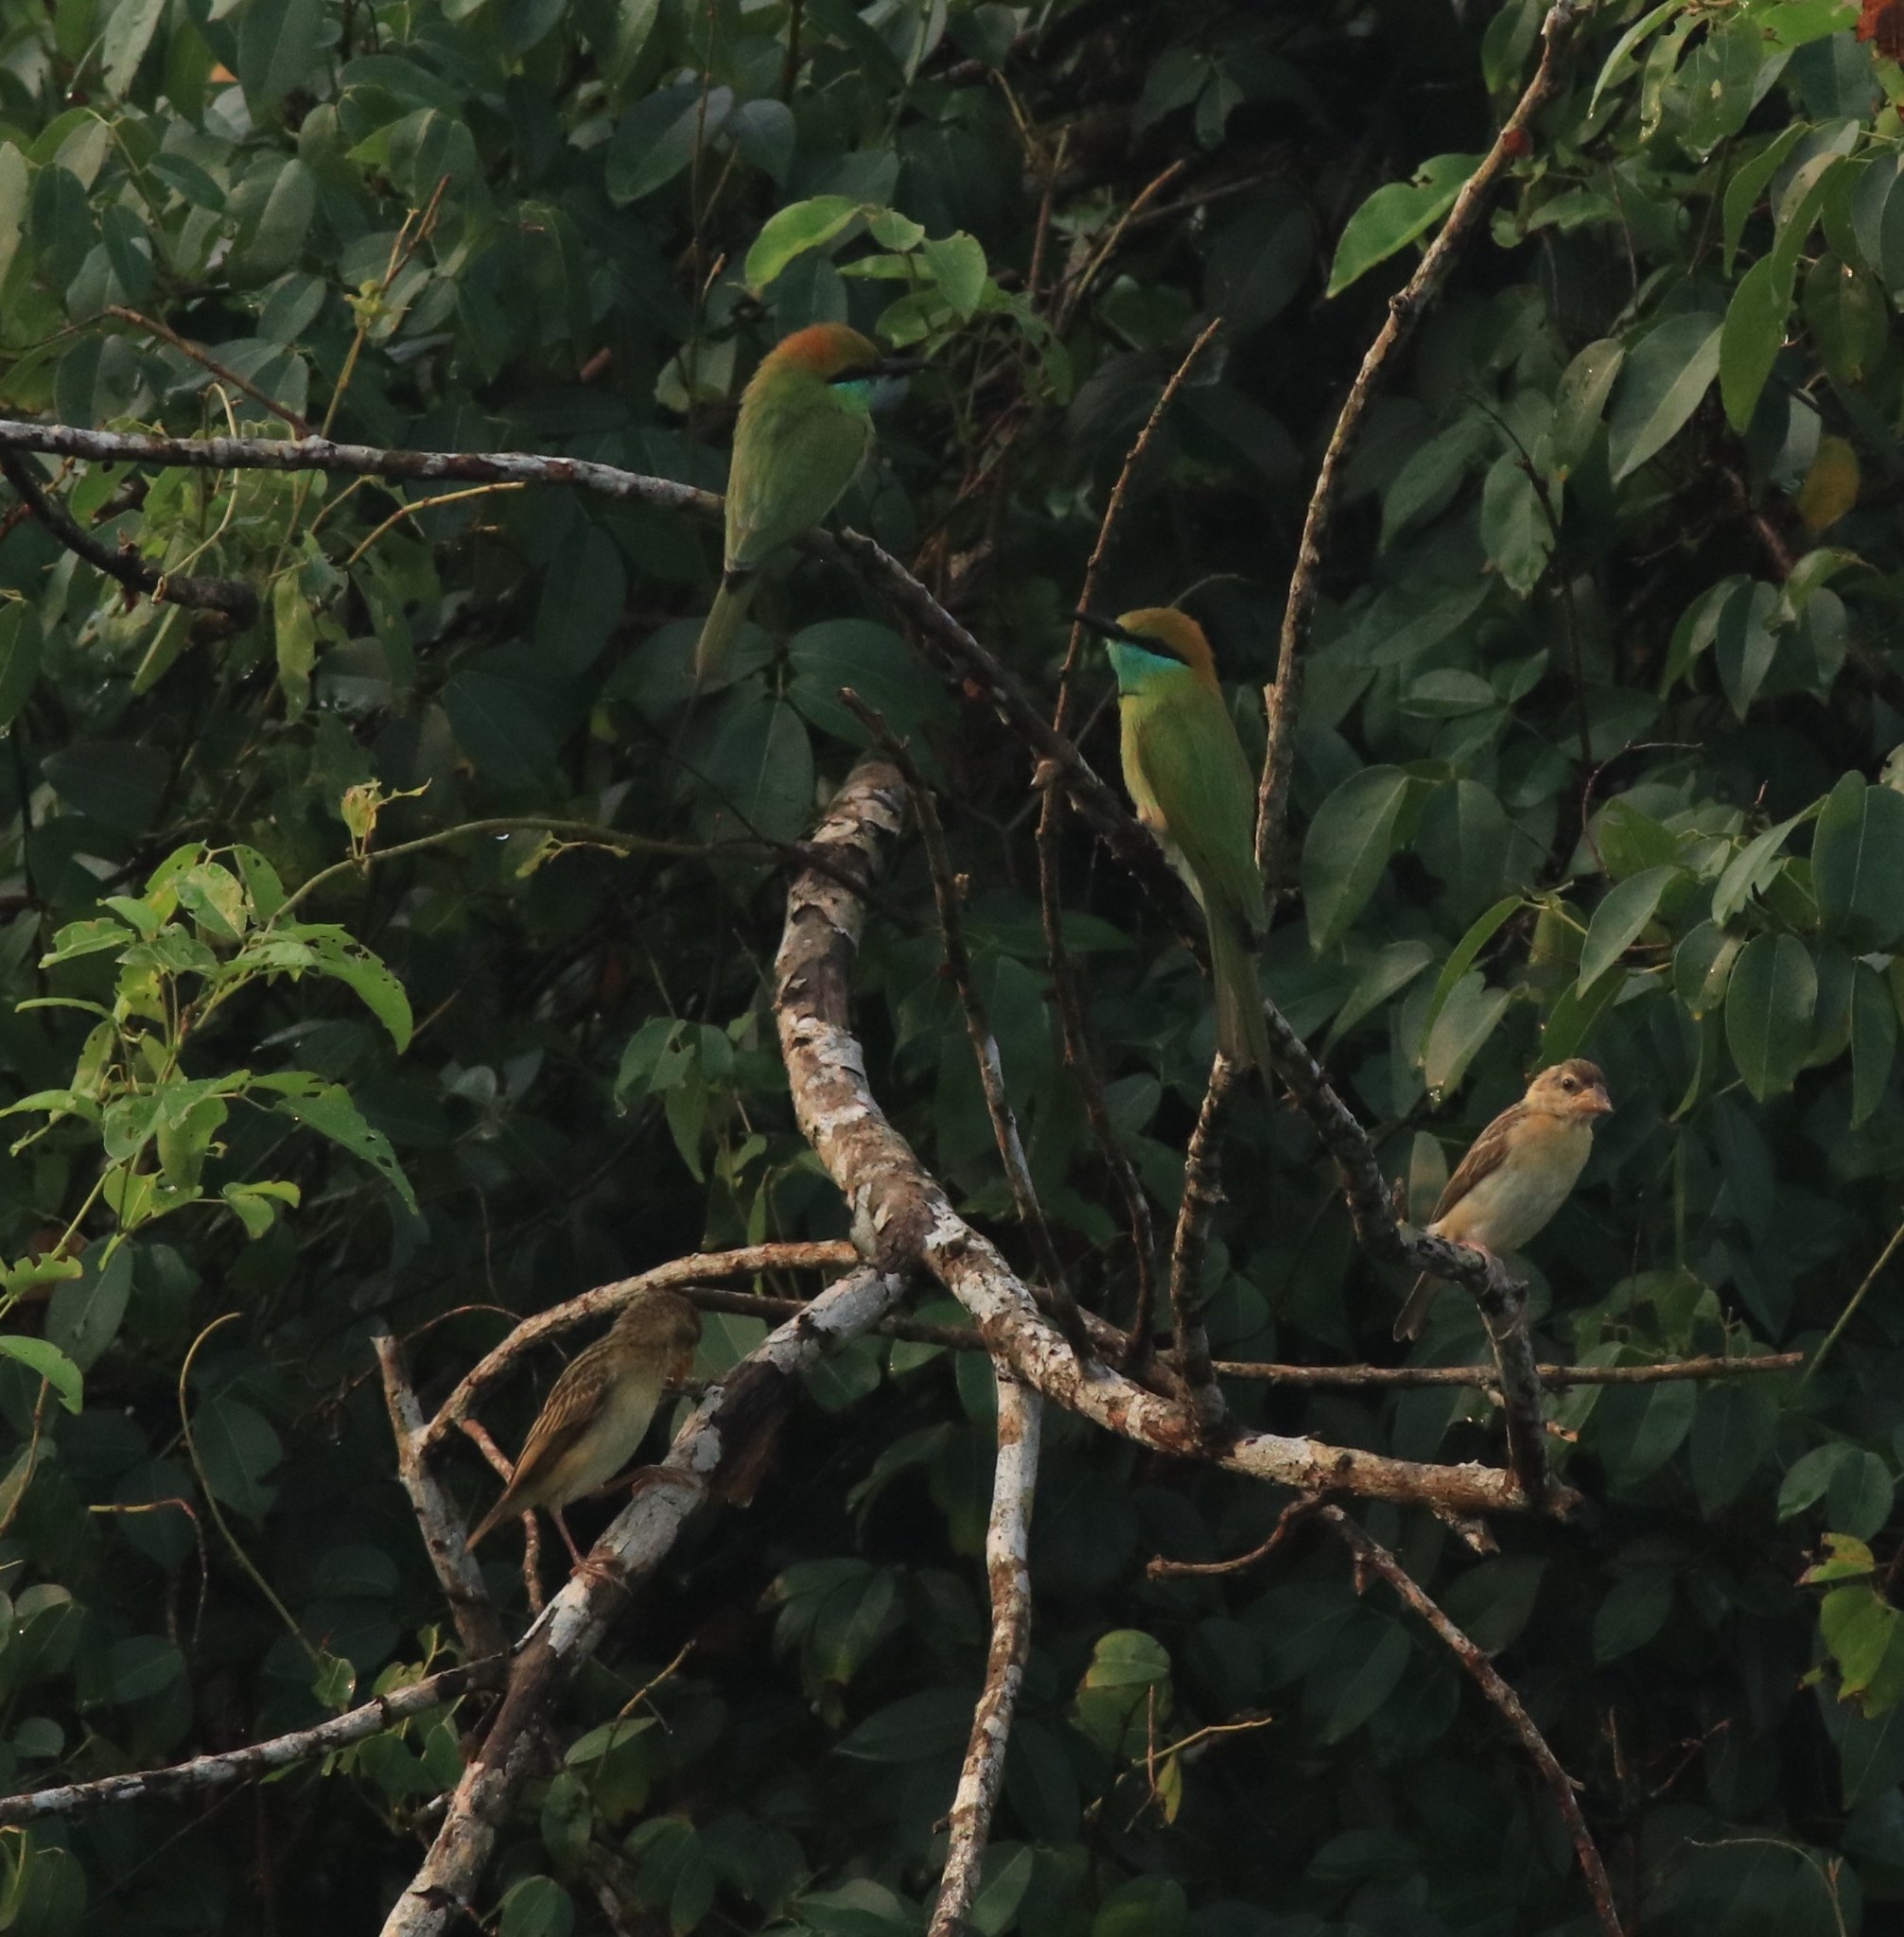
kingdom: Animalia
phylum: Chordata
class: Aves
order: Coraciiformes
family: Meropidae
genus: Merops
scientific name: Merops orientalis
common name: Green bee-eater
